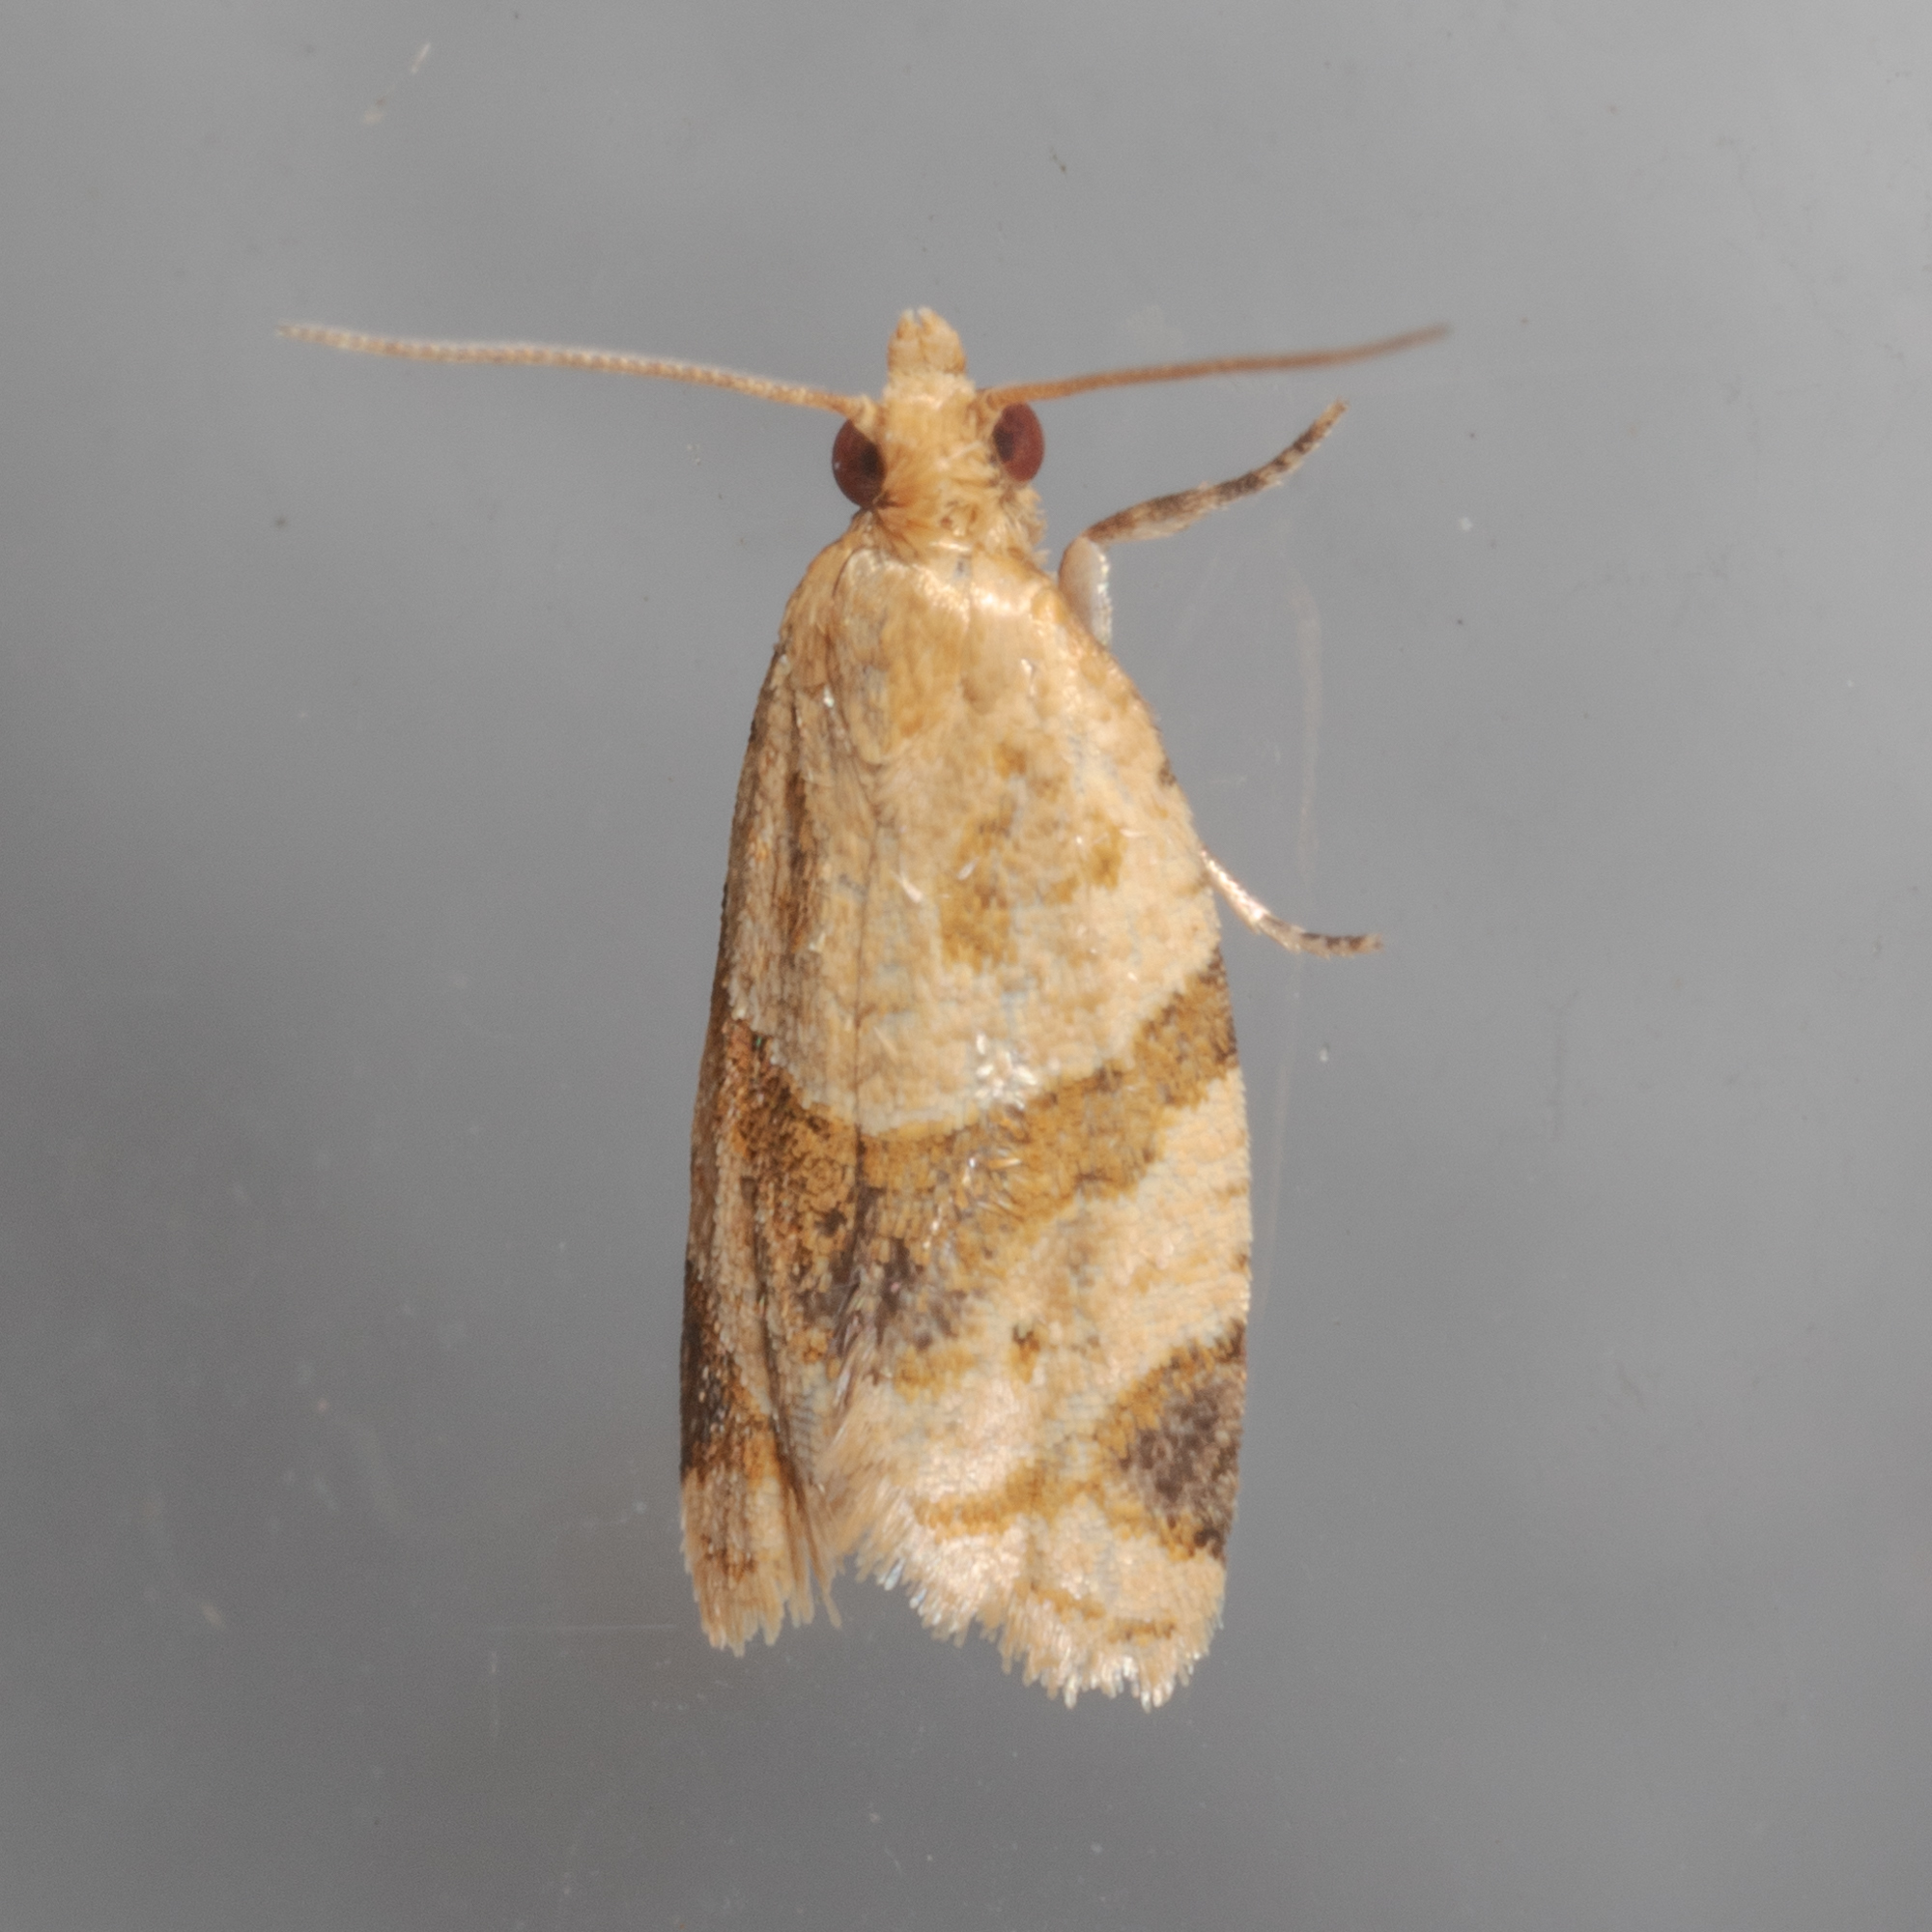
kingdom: Animalia
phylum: Arthropoda
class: Insecta
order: Lepidoptera
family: Tortricidae
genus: Clepsis
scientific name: Clepsis peritana
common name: Garden tortrix
